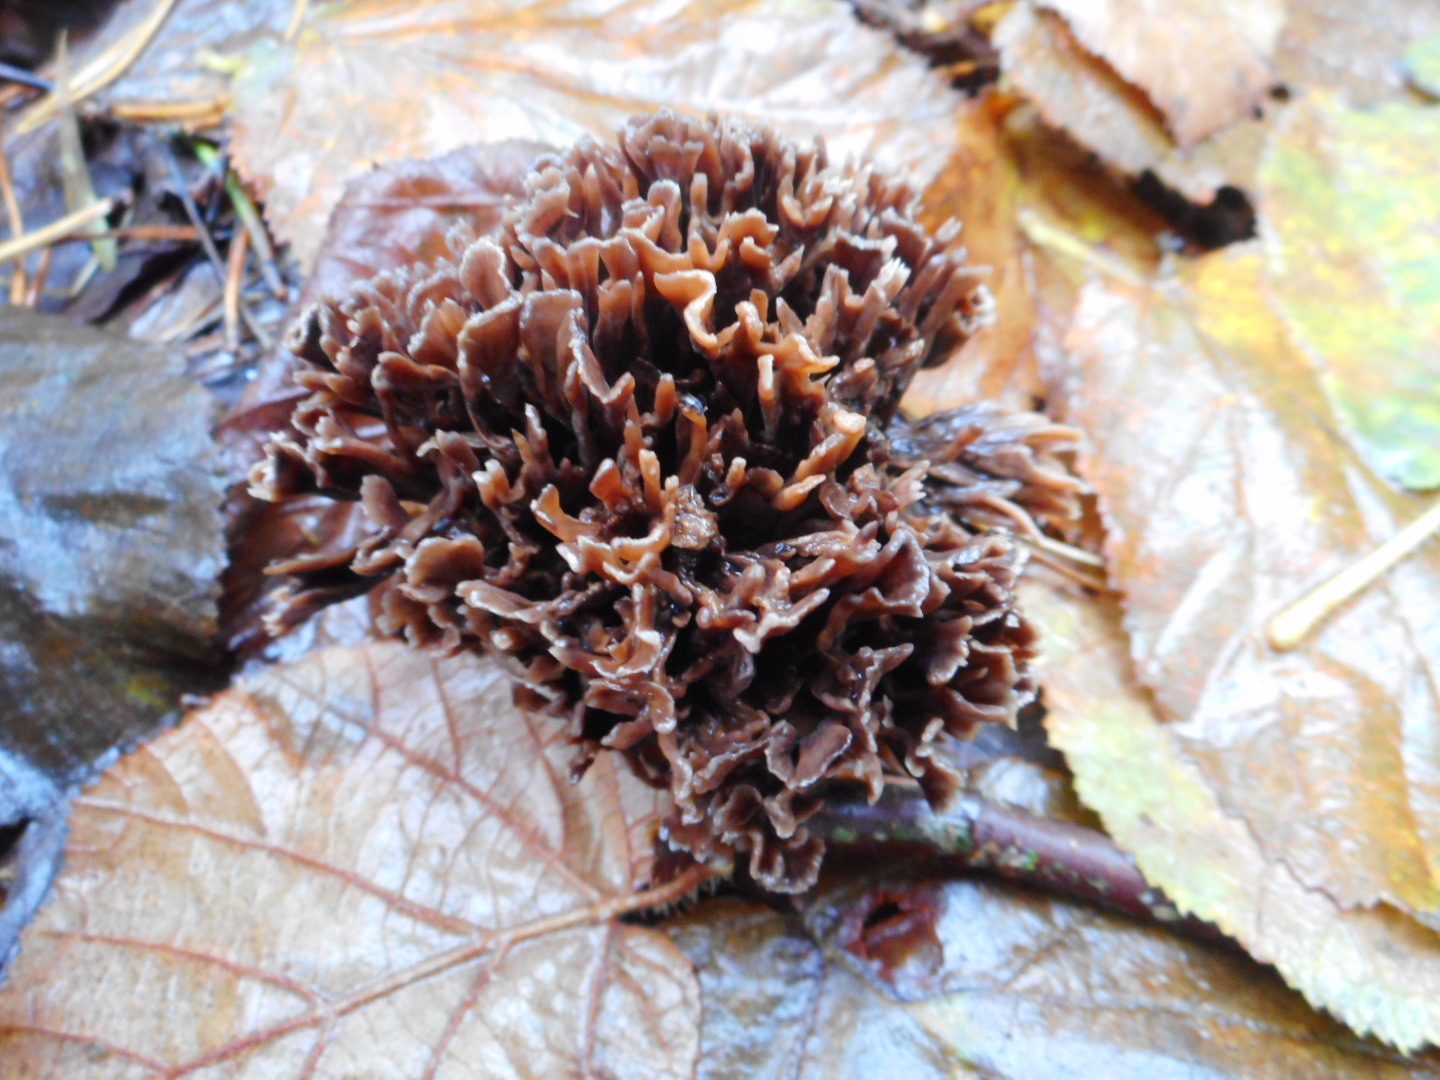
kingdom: Fungi
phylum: Basidiomycota
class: Agaricomycetes
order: Thelephorales
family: Thelephoraceae
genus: Thelephora
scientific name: Thelephora palmata
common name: Stinking earthfan
